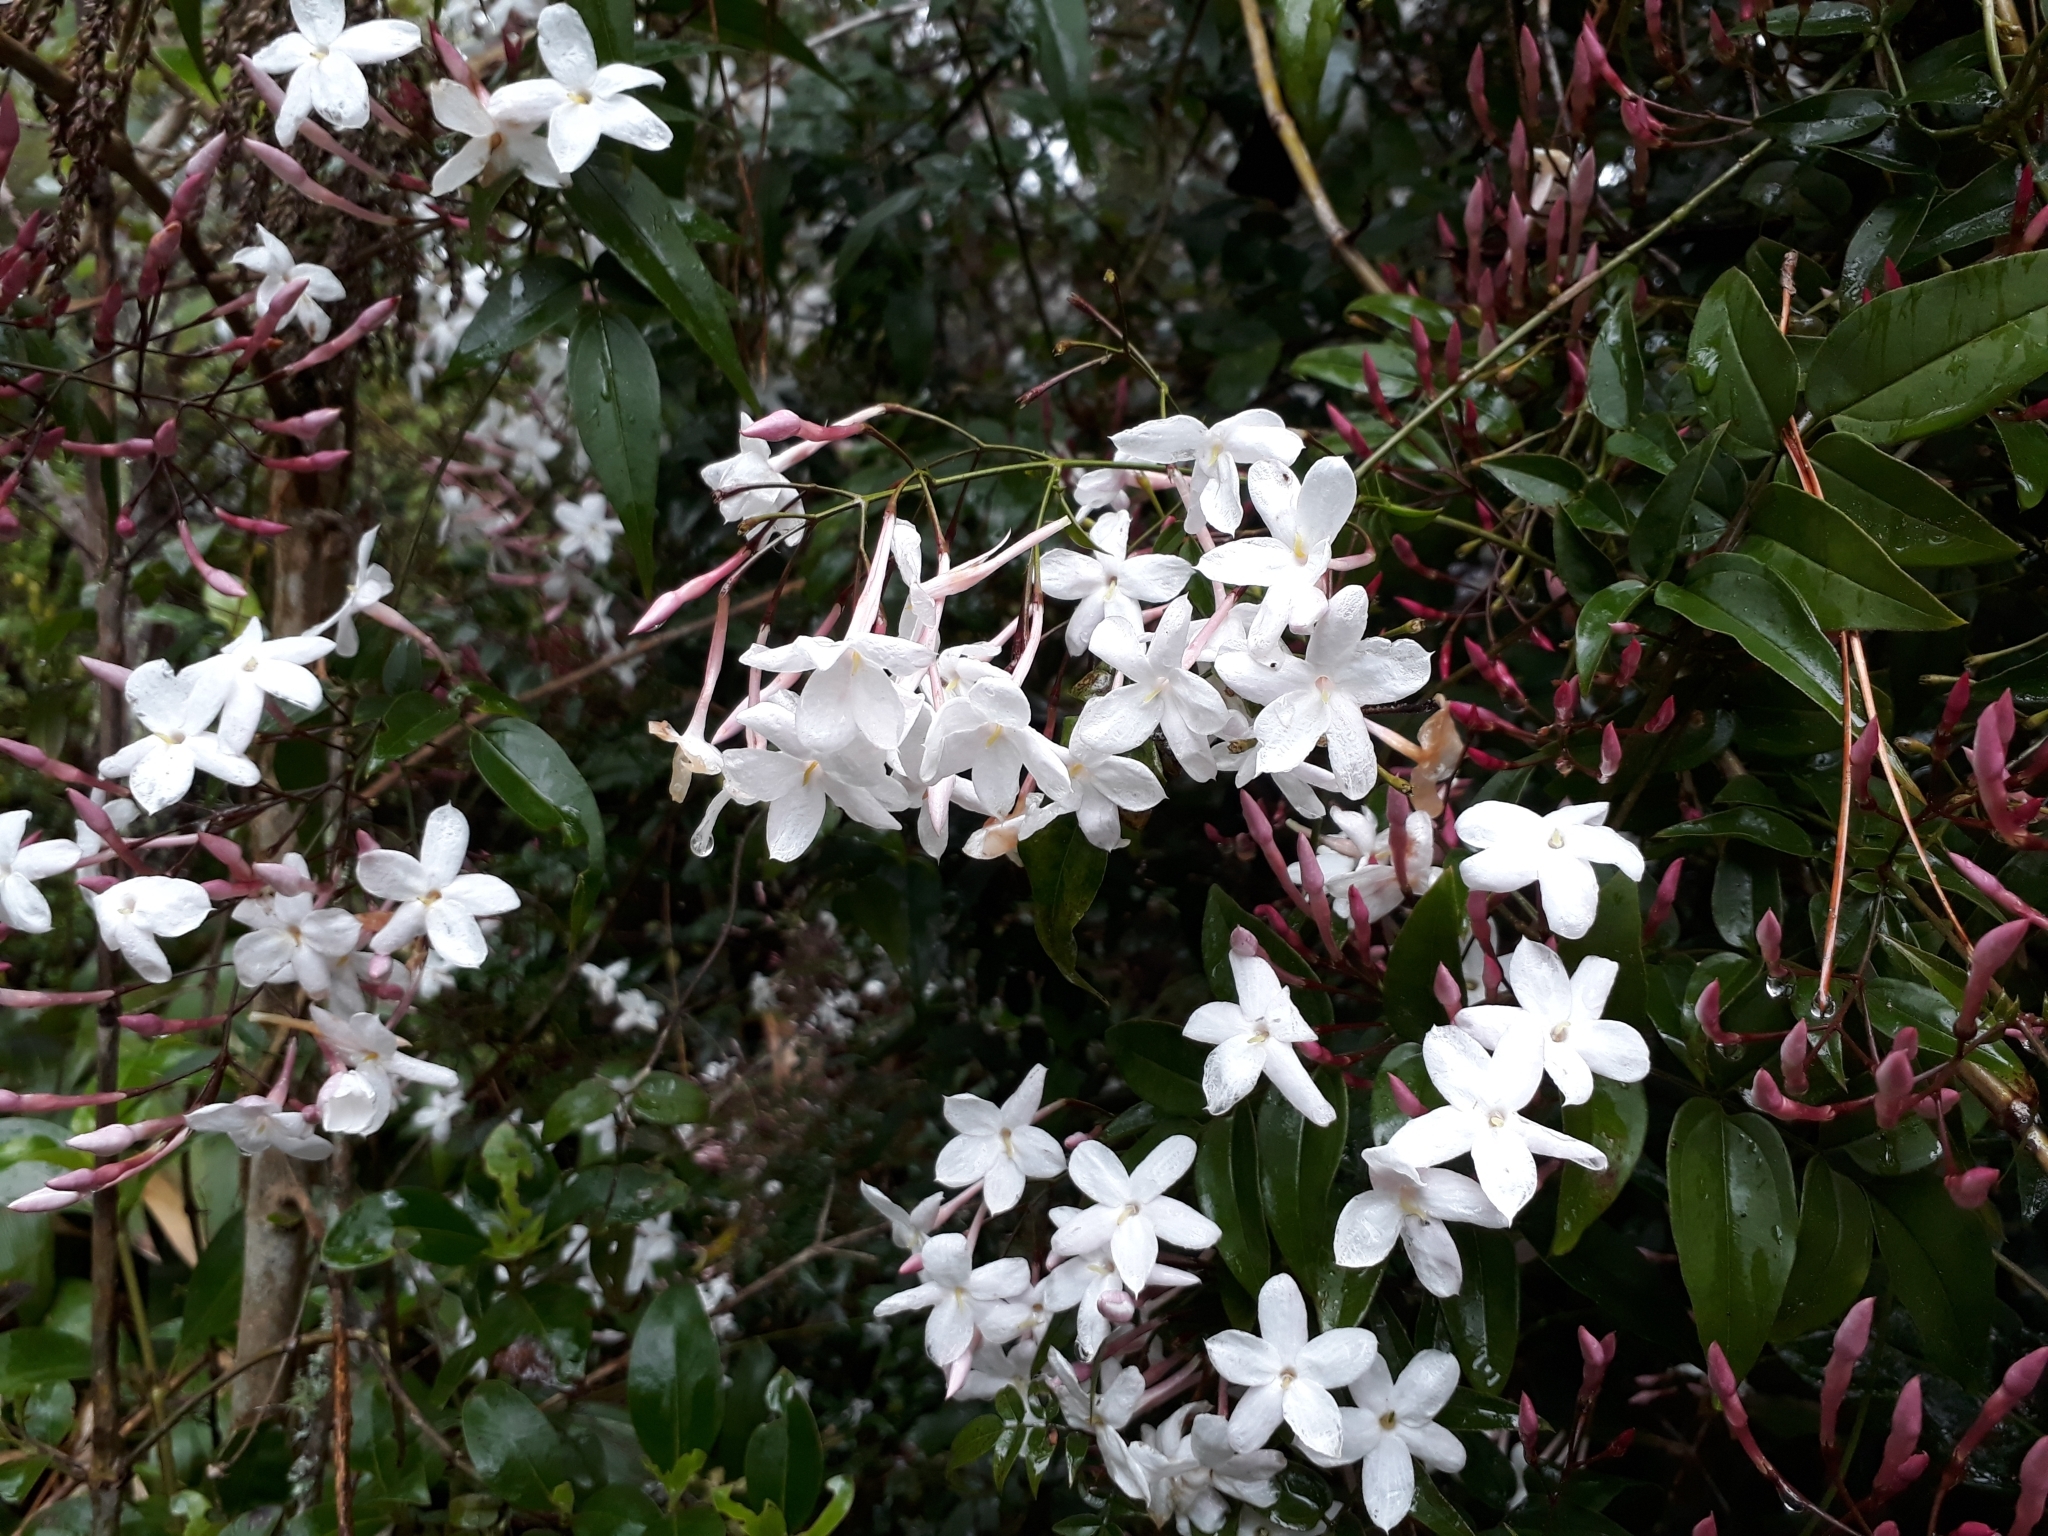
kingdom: Plantae
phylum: Tracheophyta
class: Magnoliopsida
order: Lamiales
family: Oleaceae
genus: Jasminum
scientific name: Jasminum polyanthum
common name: Pink jasmine
